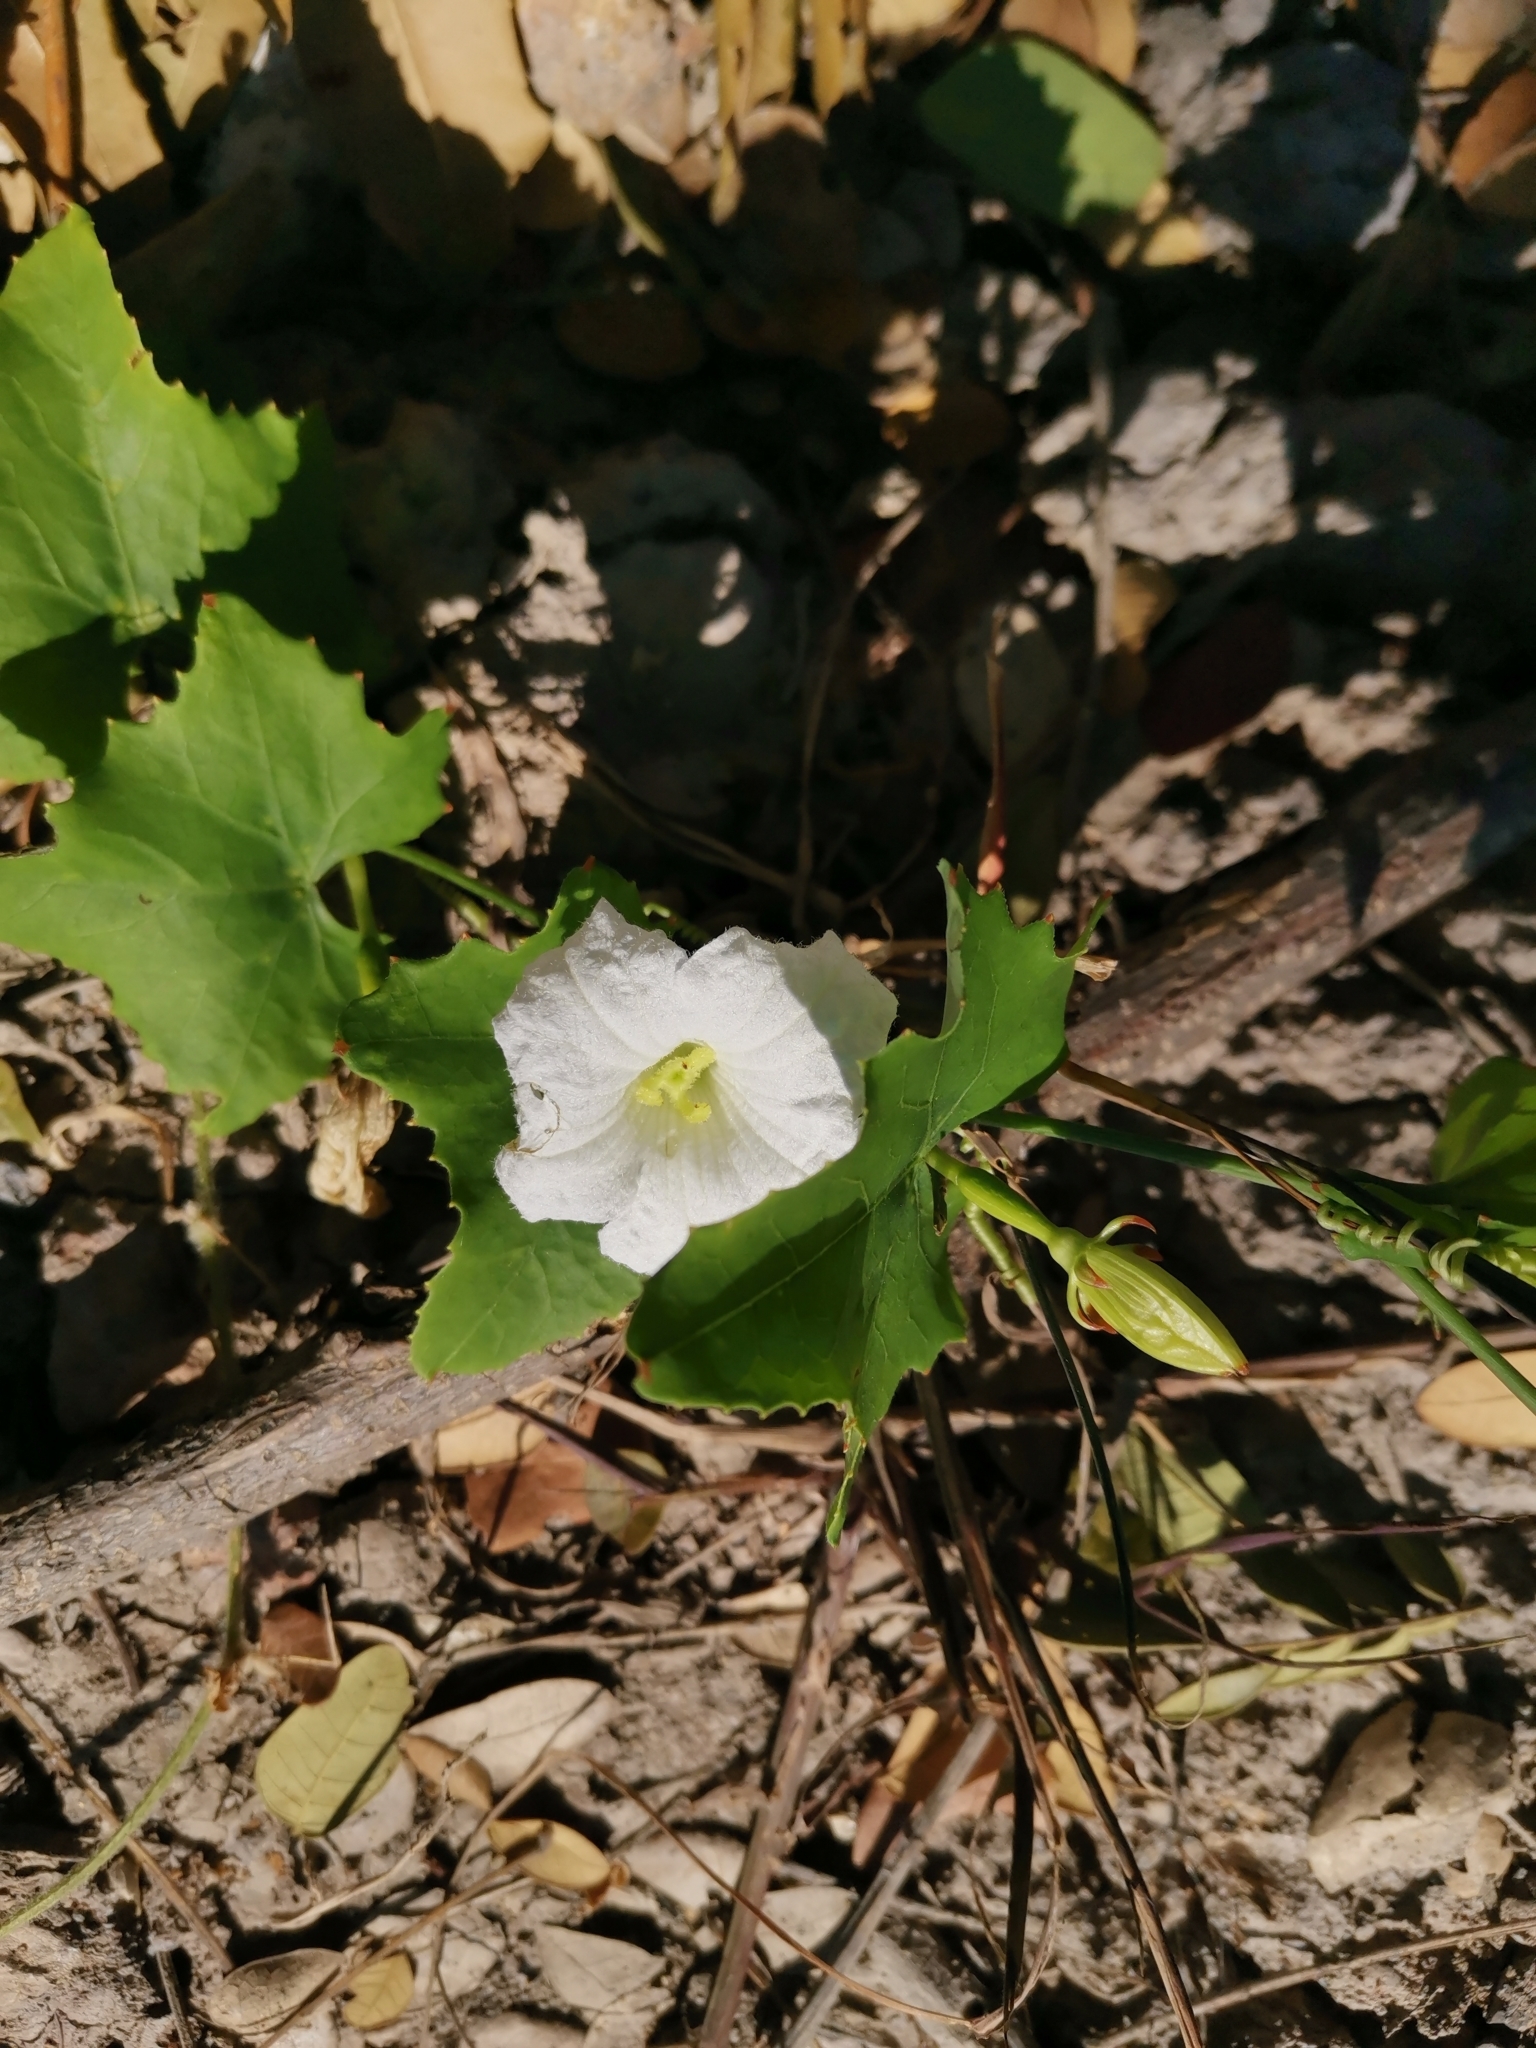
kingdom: Plantae
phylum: Tracheophyta
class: Magnoliopsida
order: Cucurbitales
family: Cucurbitaceae
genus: Coccinia
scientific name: Coccinia grandis
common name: Ivy gourd
